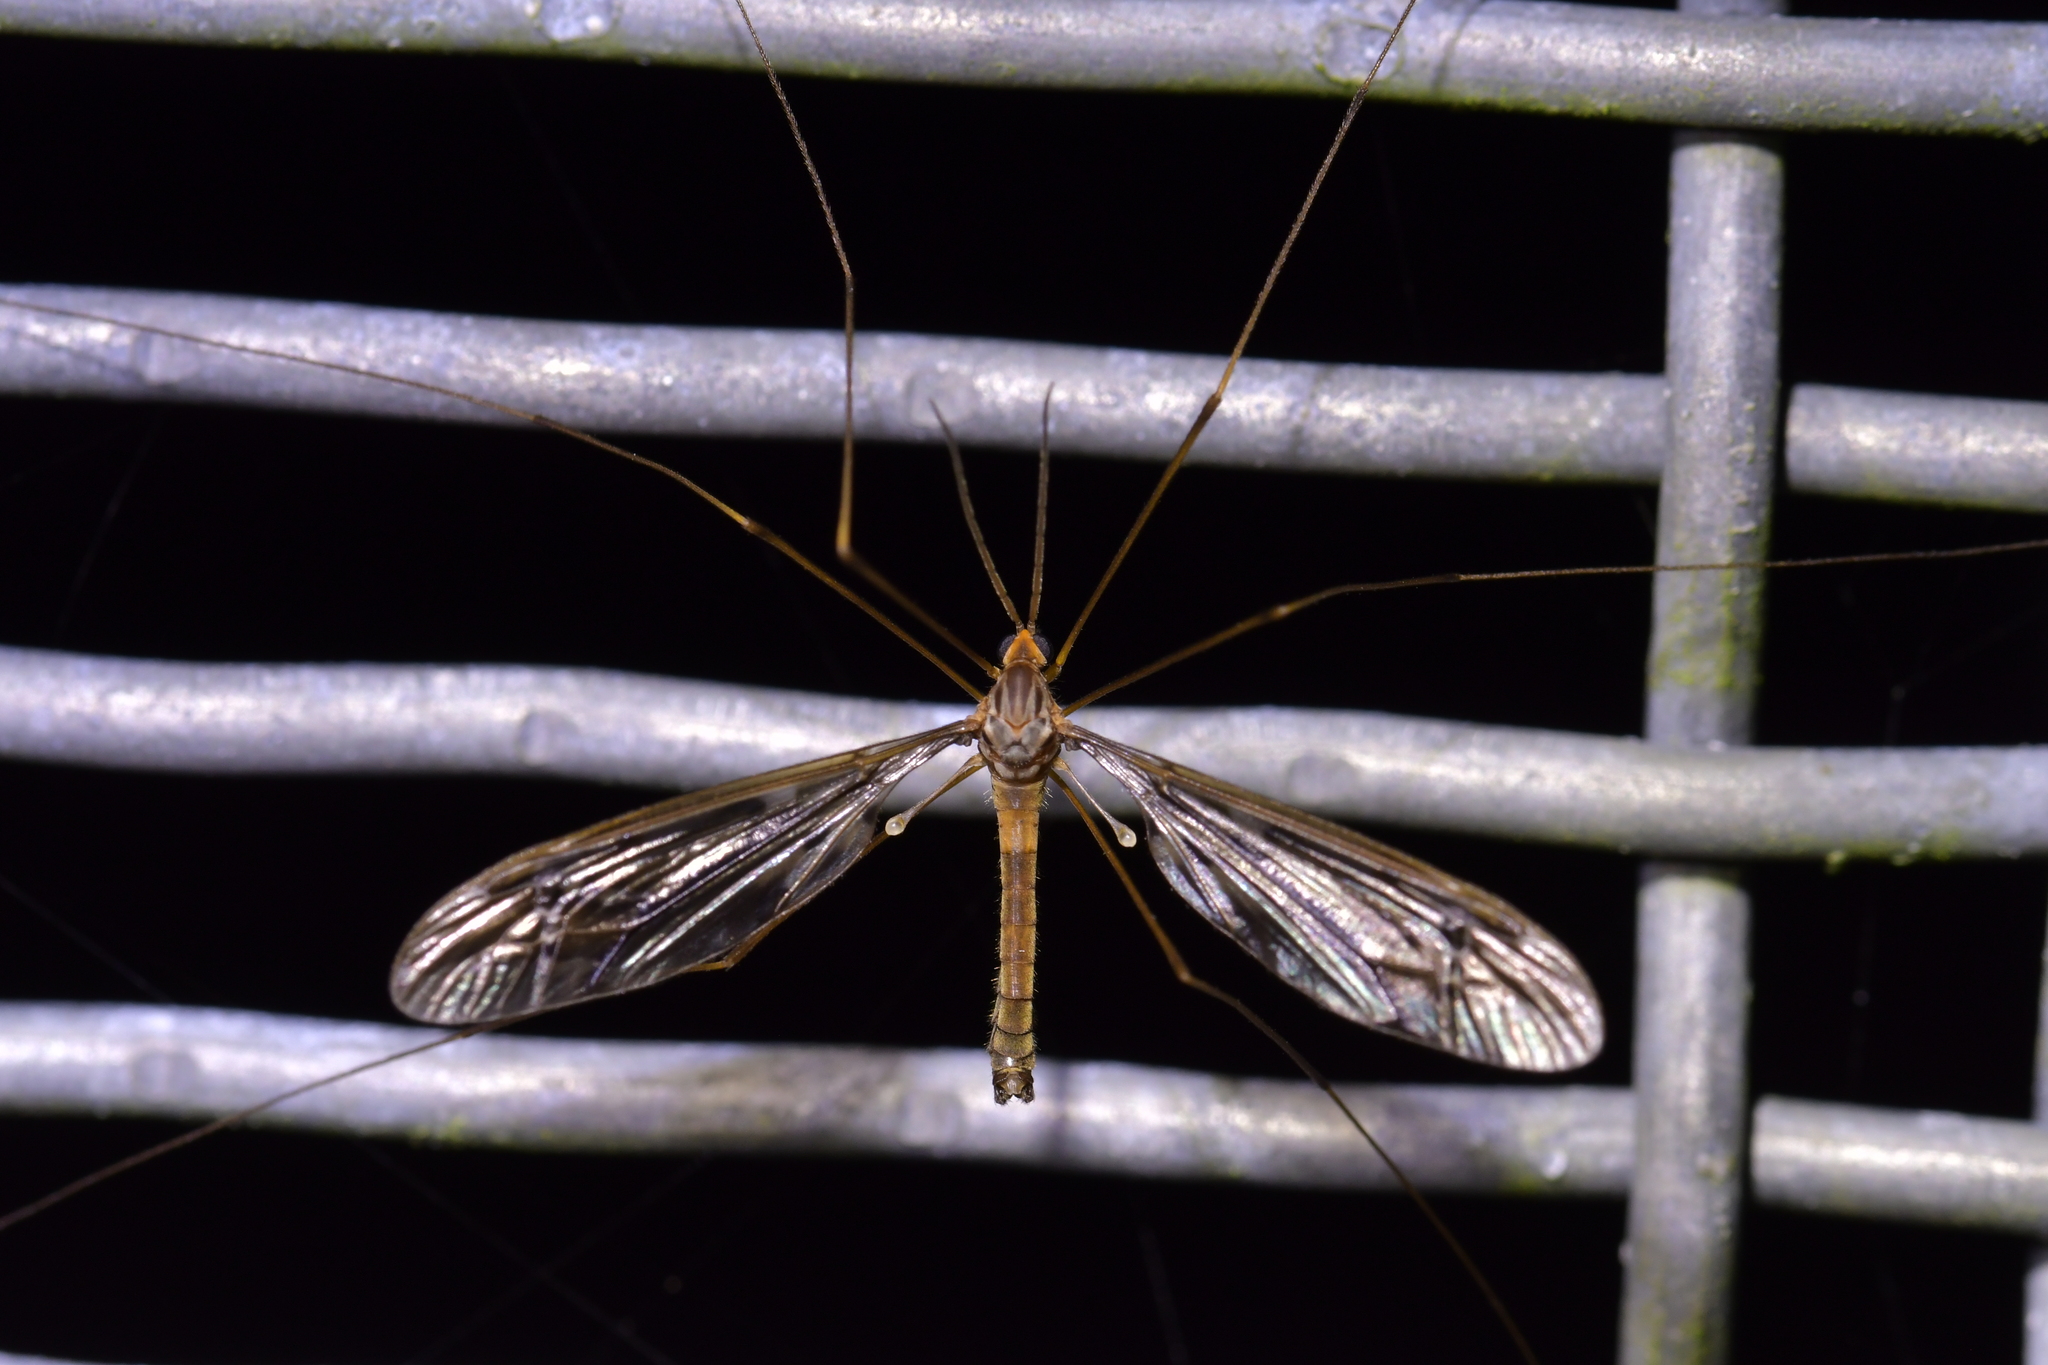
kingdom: Animalia
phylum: Arthropoda
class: Insecta
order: Diptera
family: Tipulidae
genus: Leptotarsus
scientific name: Leptotarsus binotatus
